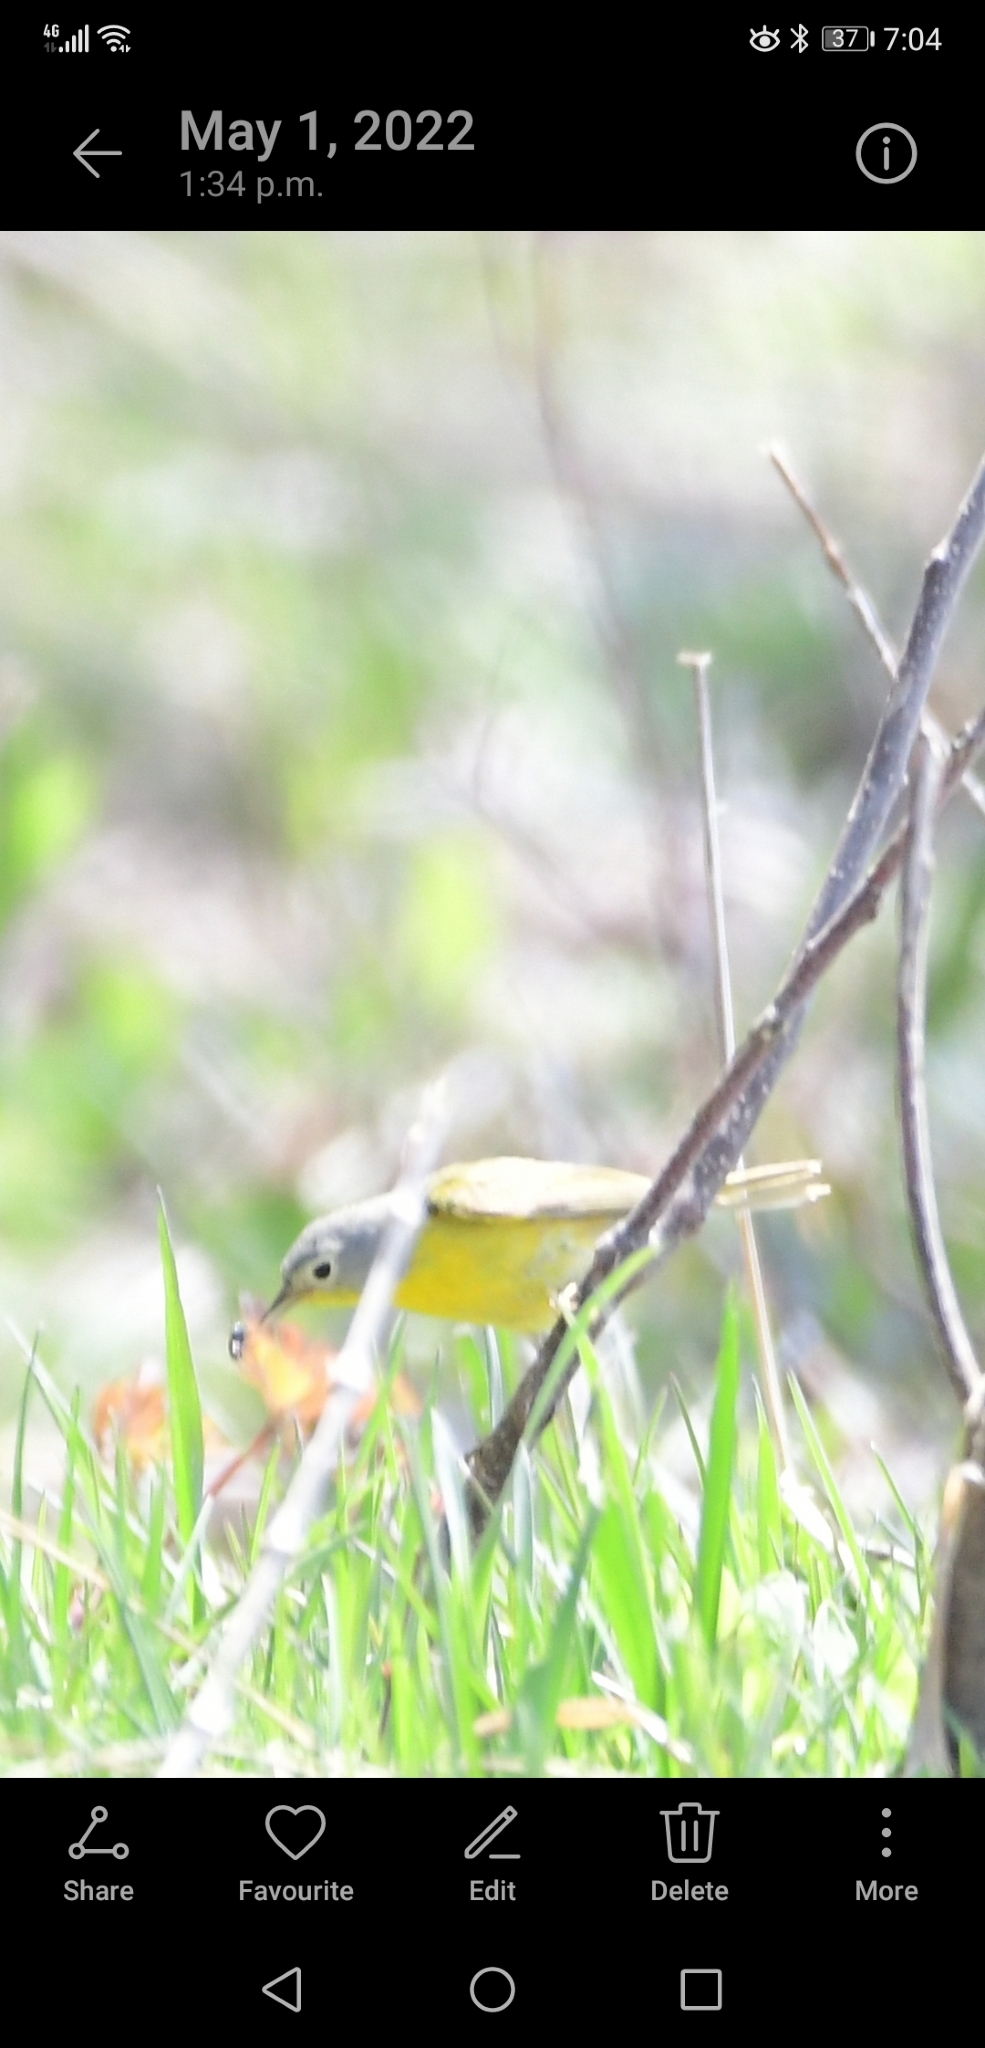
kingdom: Animalia
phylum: Chordata
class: Aves
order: Passeriformes
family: Parulidae
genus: Leiothlypis
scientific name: Leiothlypis ruficapilla
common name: Nashville warbler
